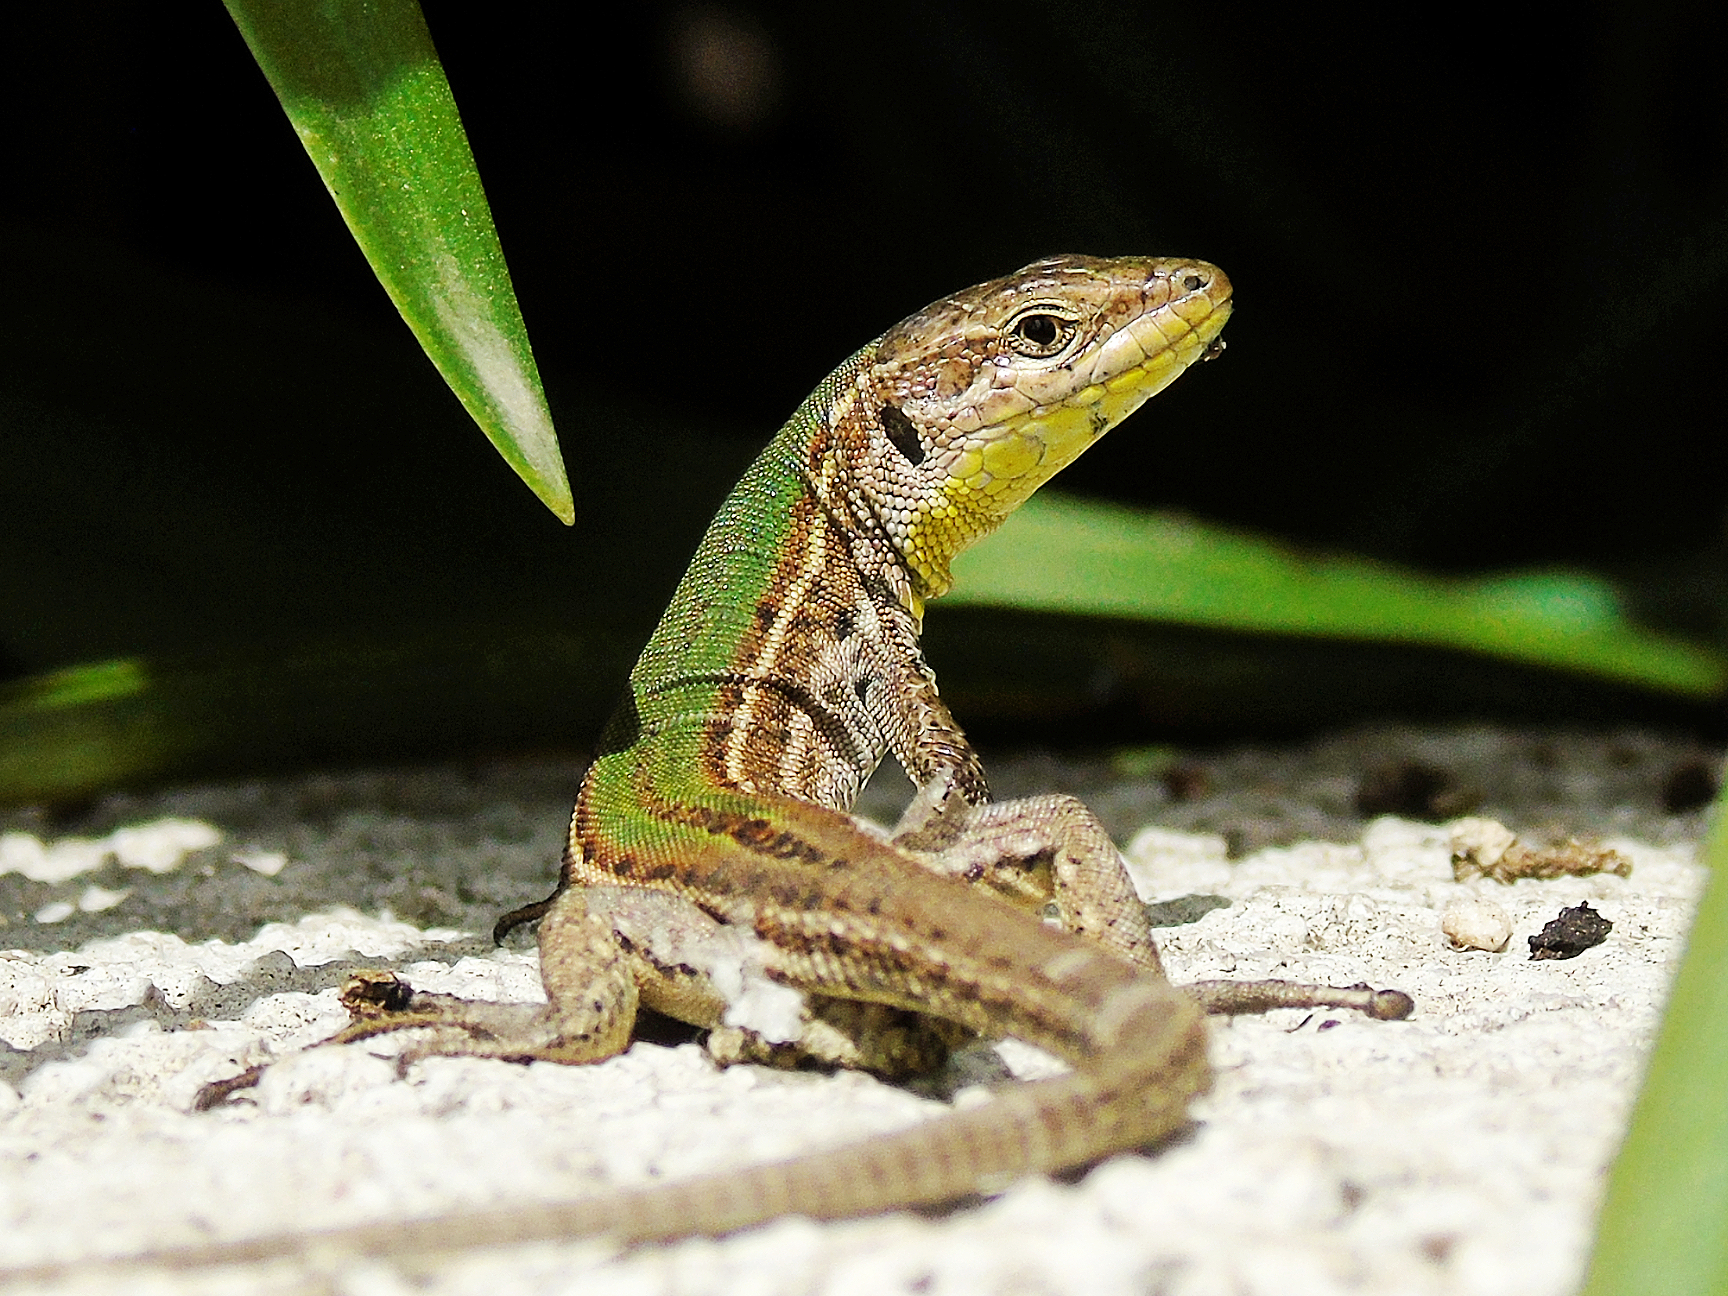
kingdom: Animalia
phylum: Chordata
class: Squamata
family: Lacertidae
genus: Podarcis
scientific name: Podarcis melisellensis
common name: Dalmatian wall lizard
